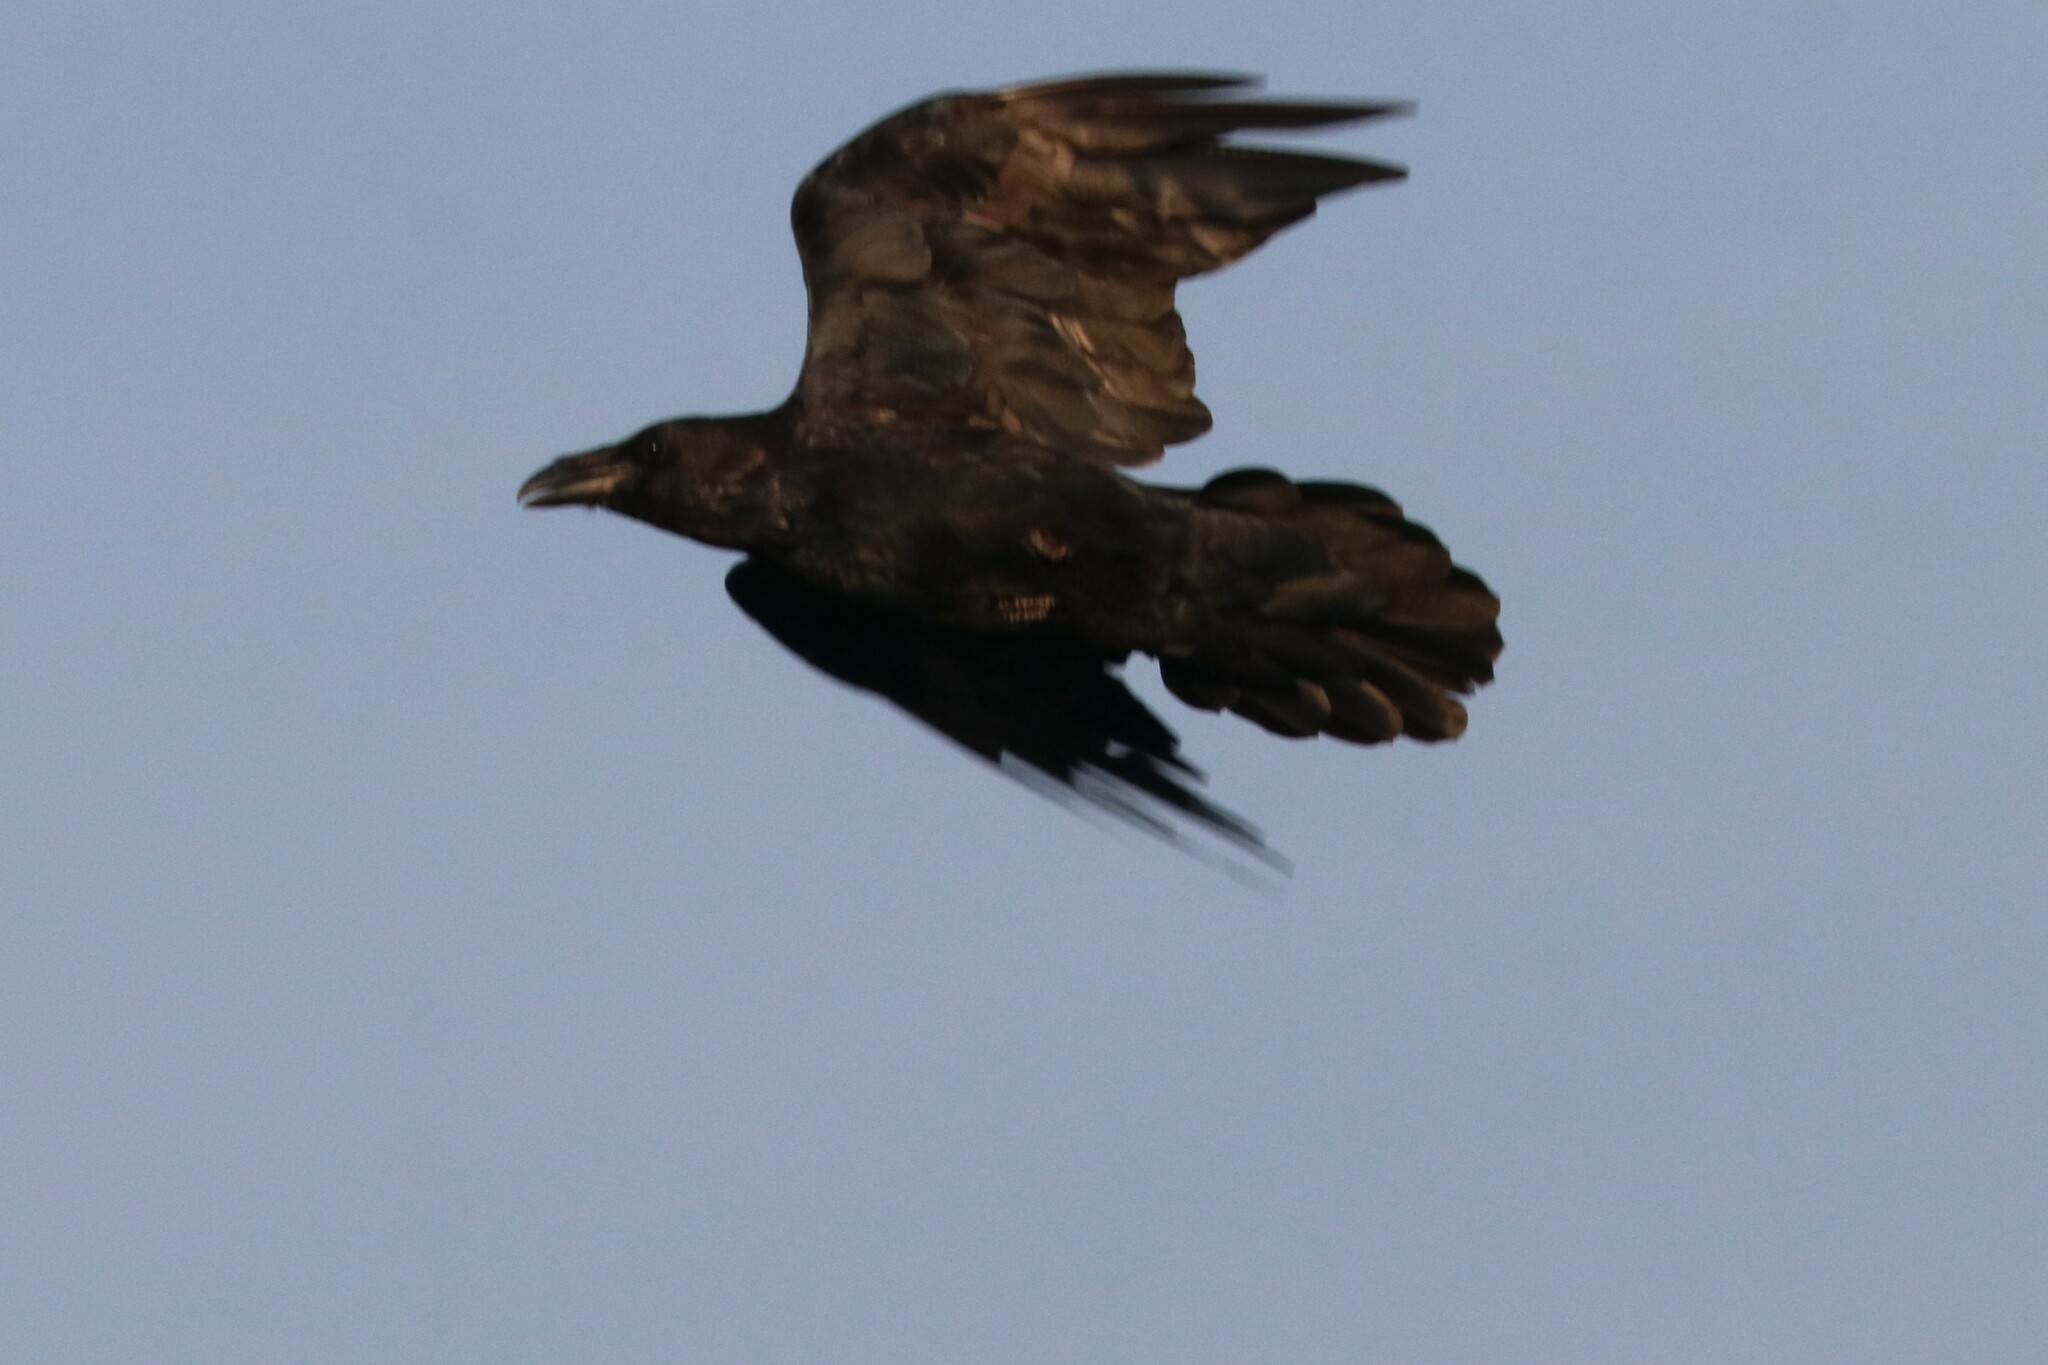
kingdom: Animalia
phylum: Chordata
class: Aves
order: Passeriformes
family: Corvidae
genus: Corvus
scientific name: Corvus corax
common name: Common raven
